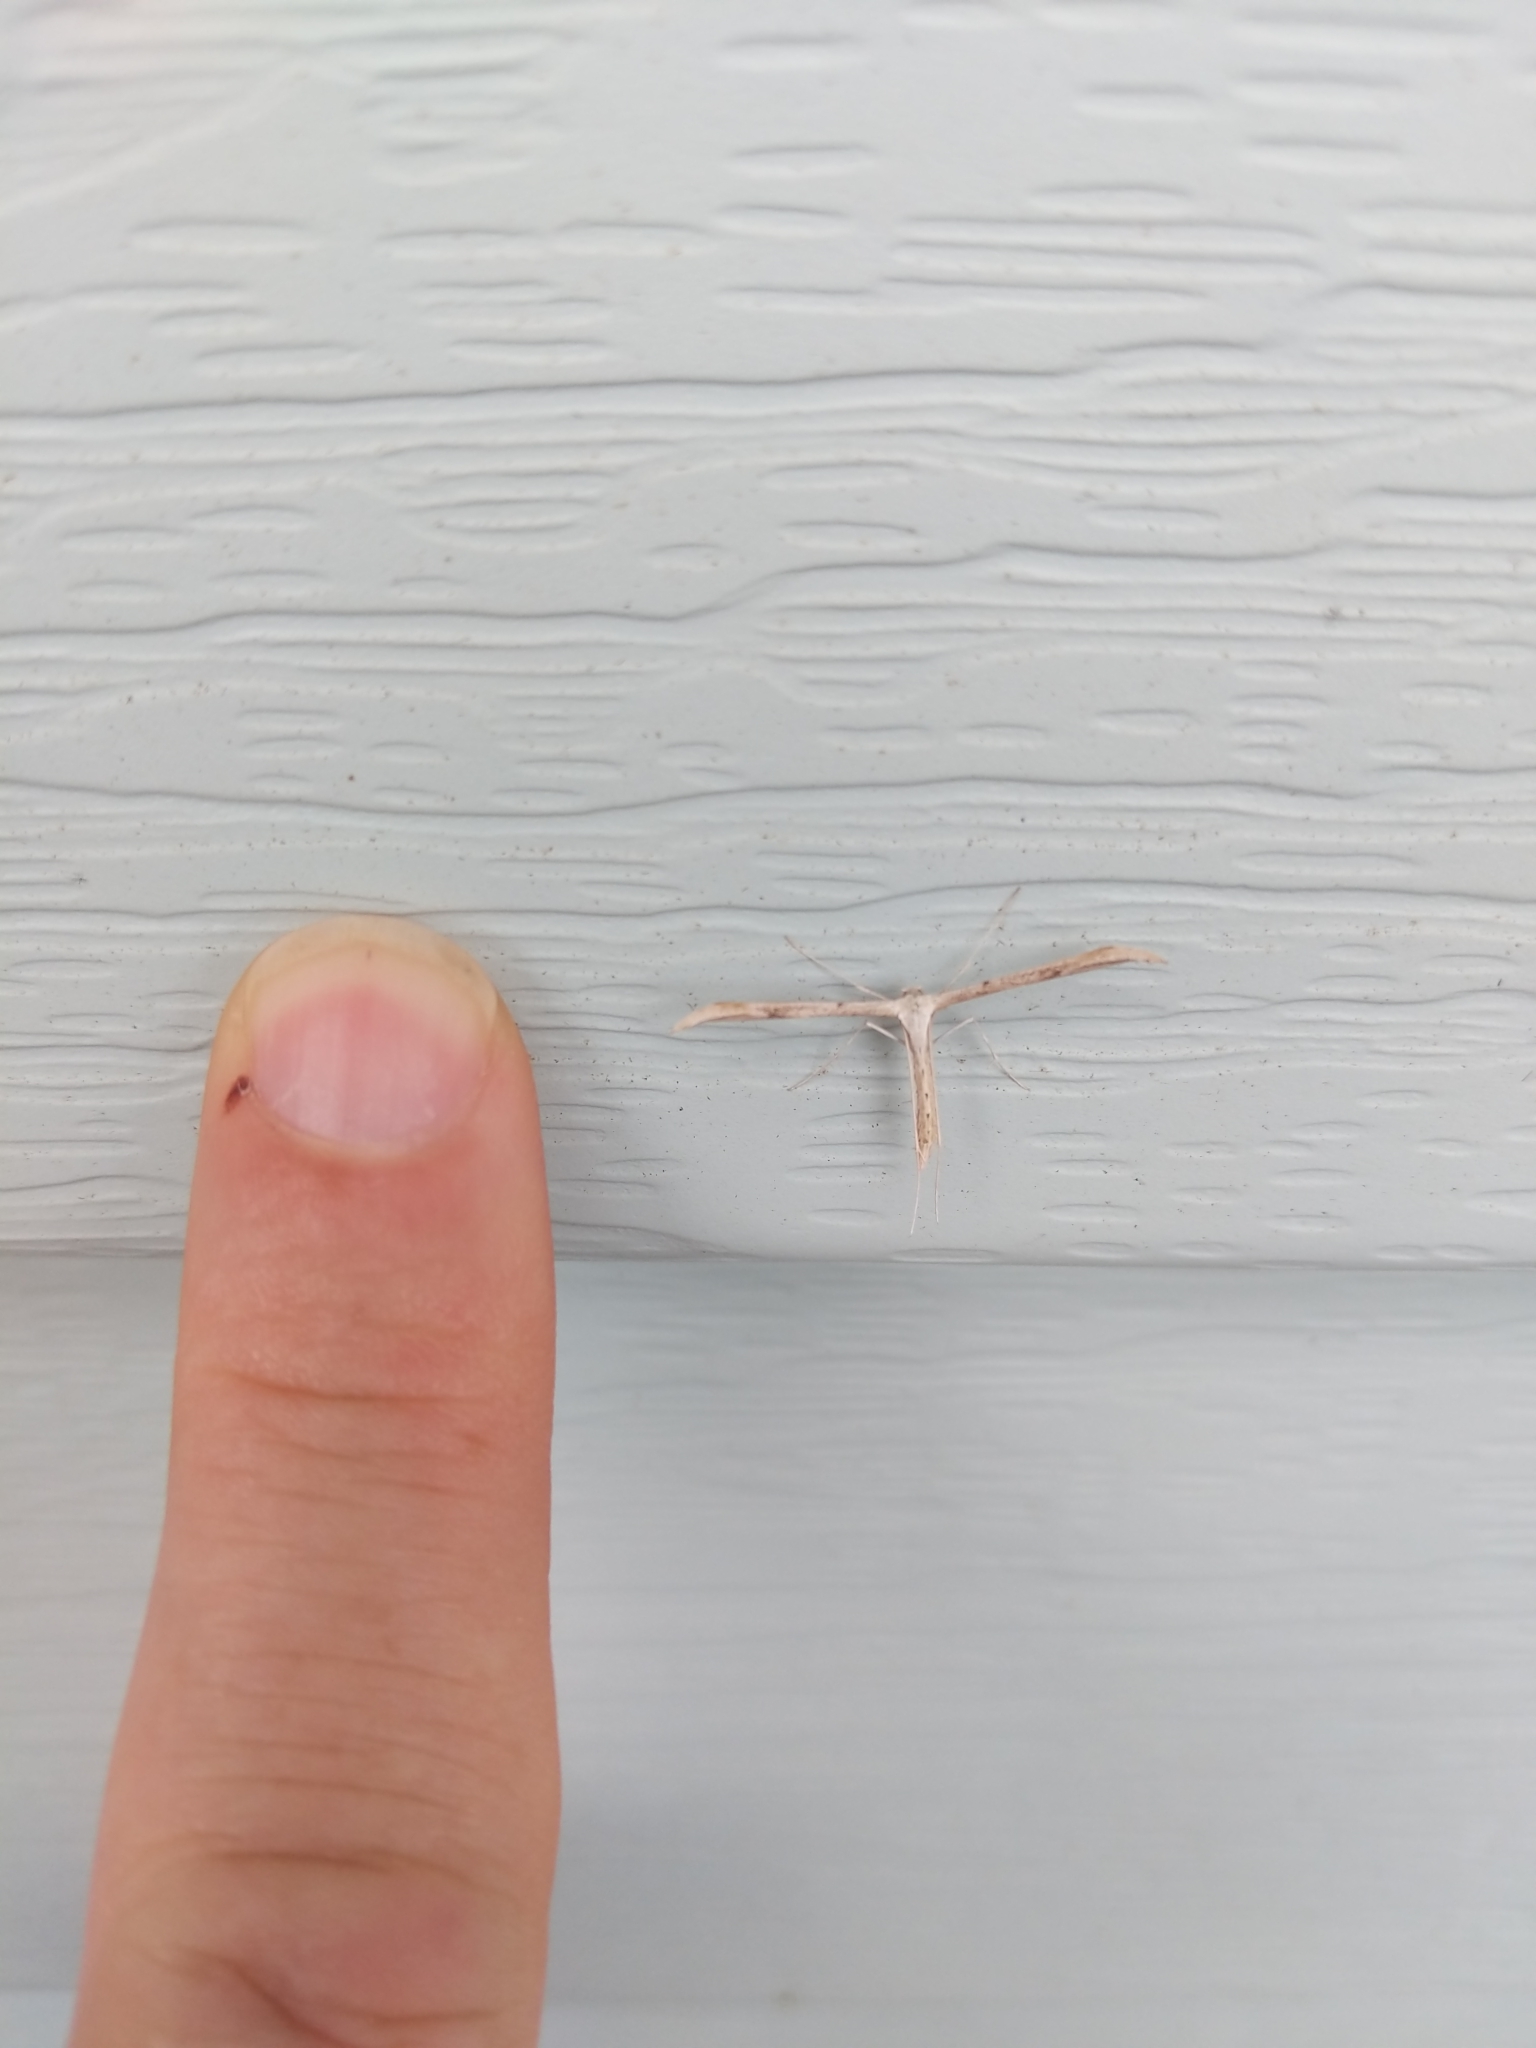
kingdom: Animalia
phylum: Arthropoda
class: Insecta
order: Lepidoptera
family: Pterophoridae
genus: Emmelina
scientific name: Emmelina monodactyla
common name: Common plume
